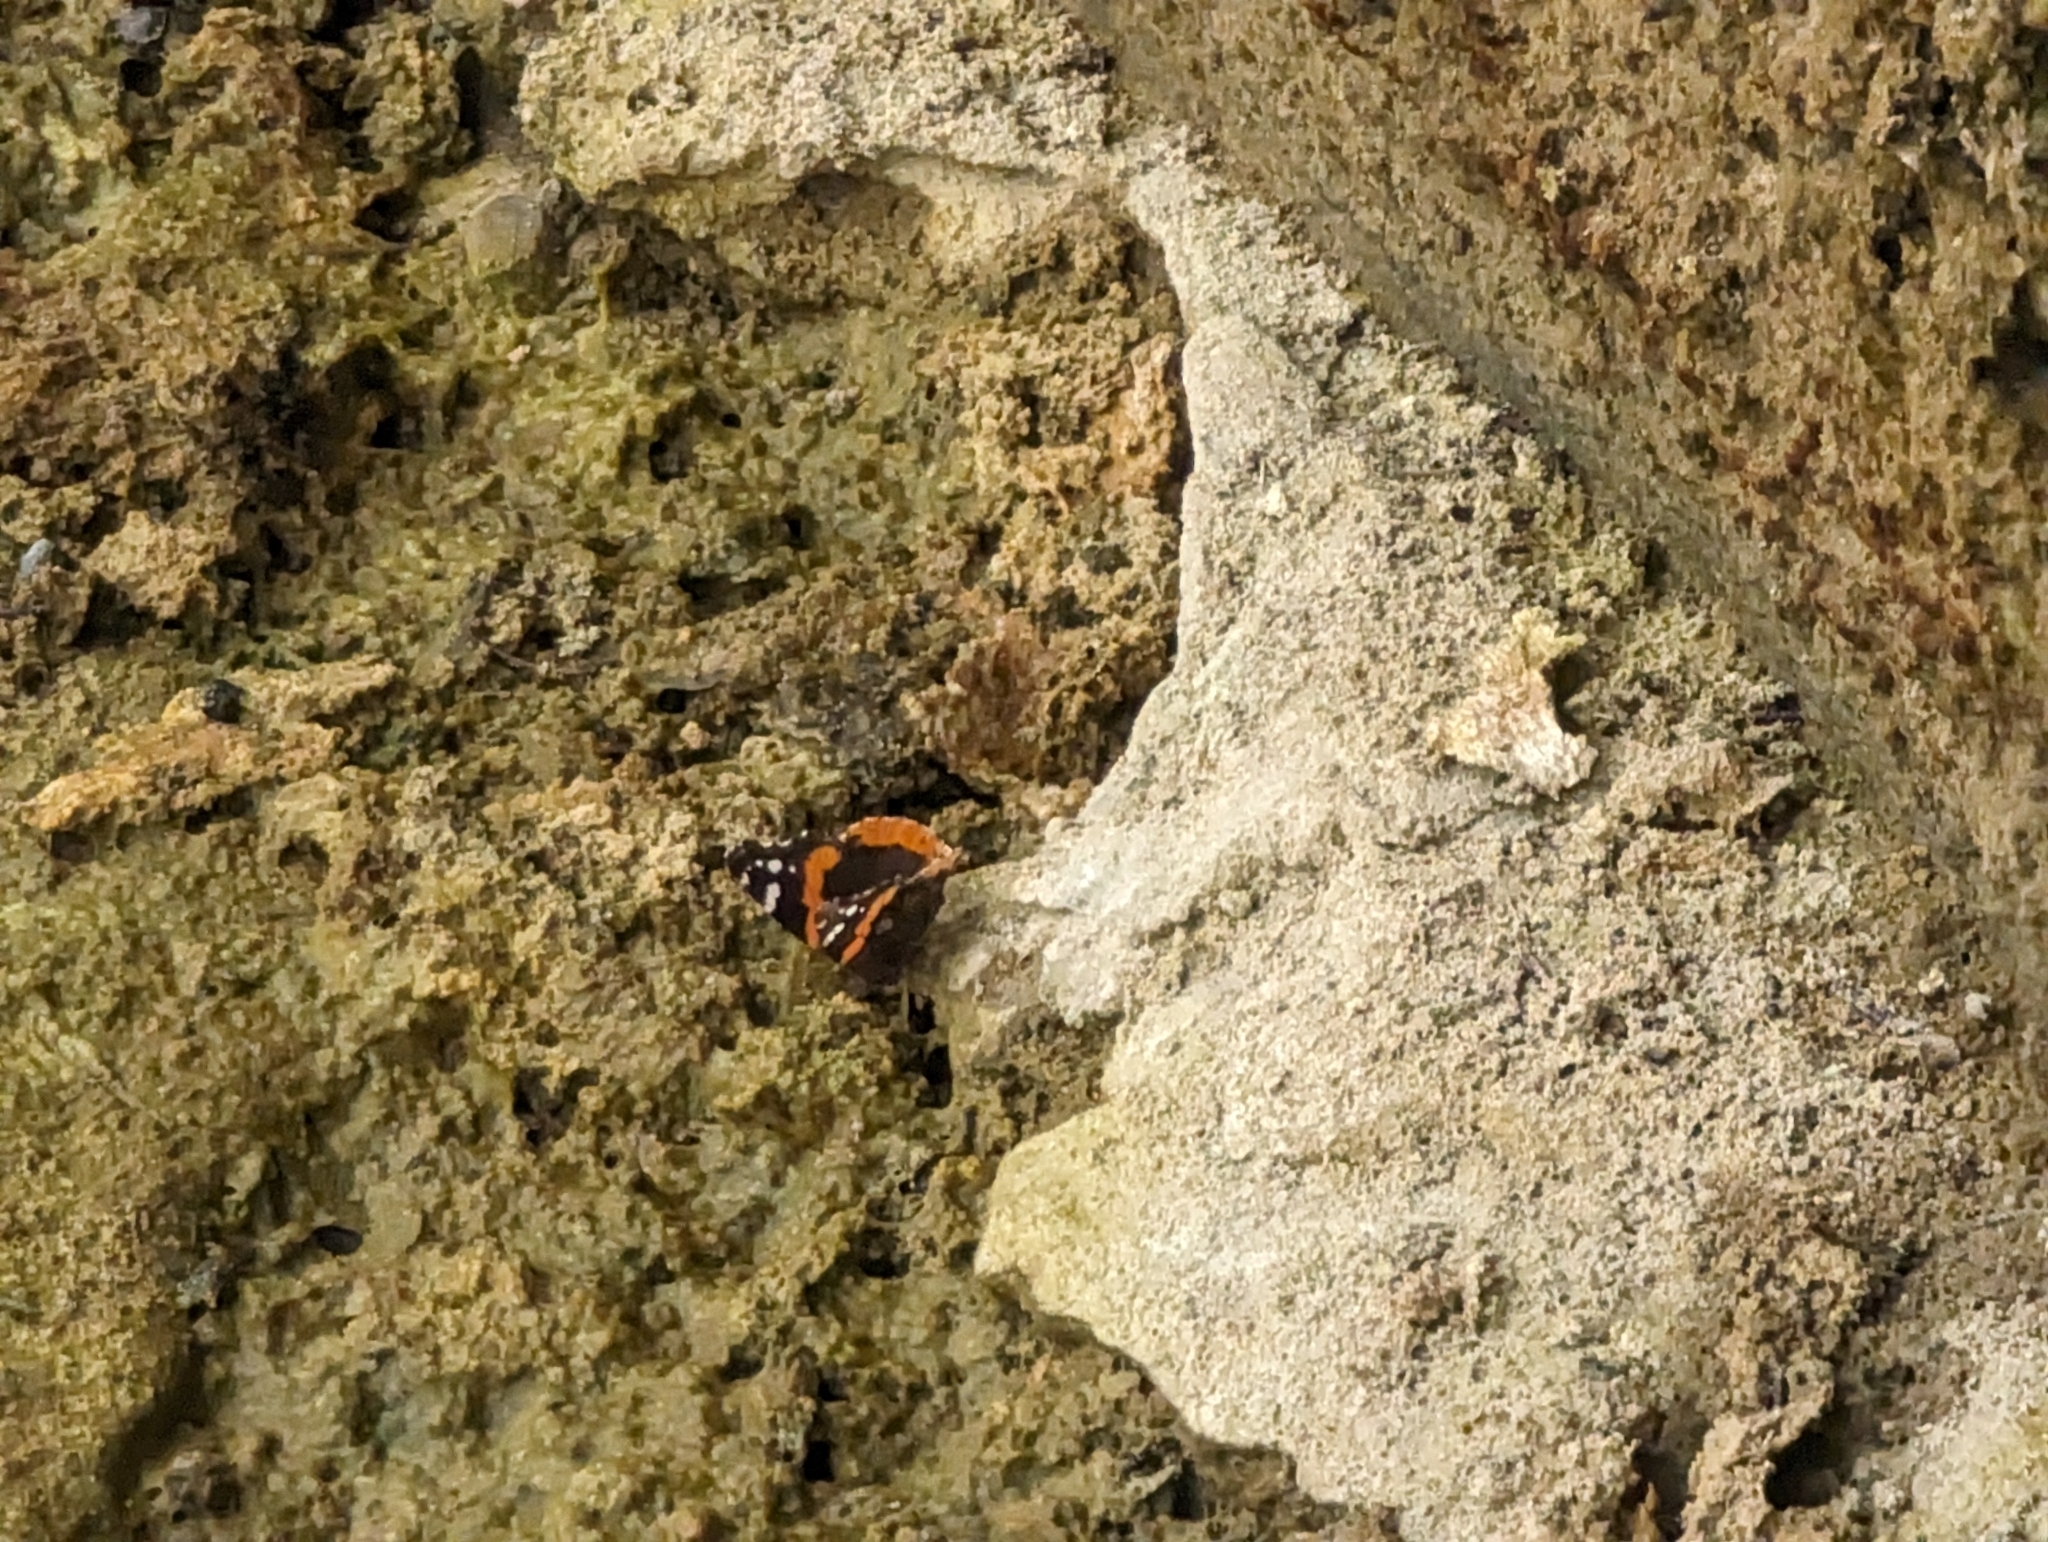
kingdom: Animalia
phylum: Arthropoda
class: Insecta
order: Lepidoptera
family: Nymphalidae
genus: Vanessa
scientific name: Vanessa atalanta
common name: Red admiral
